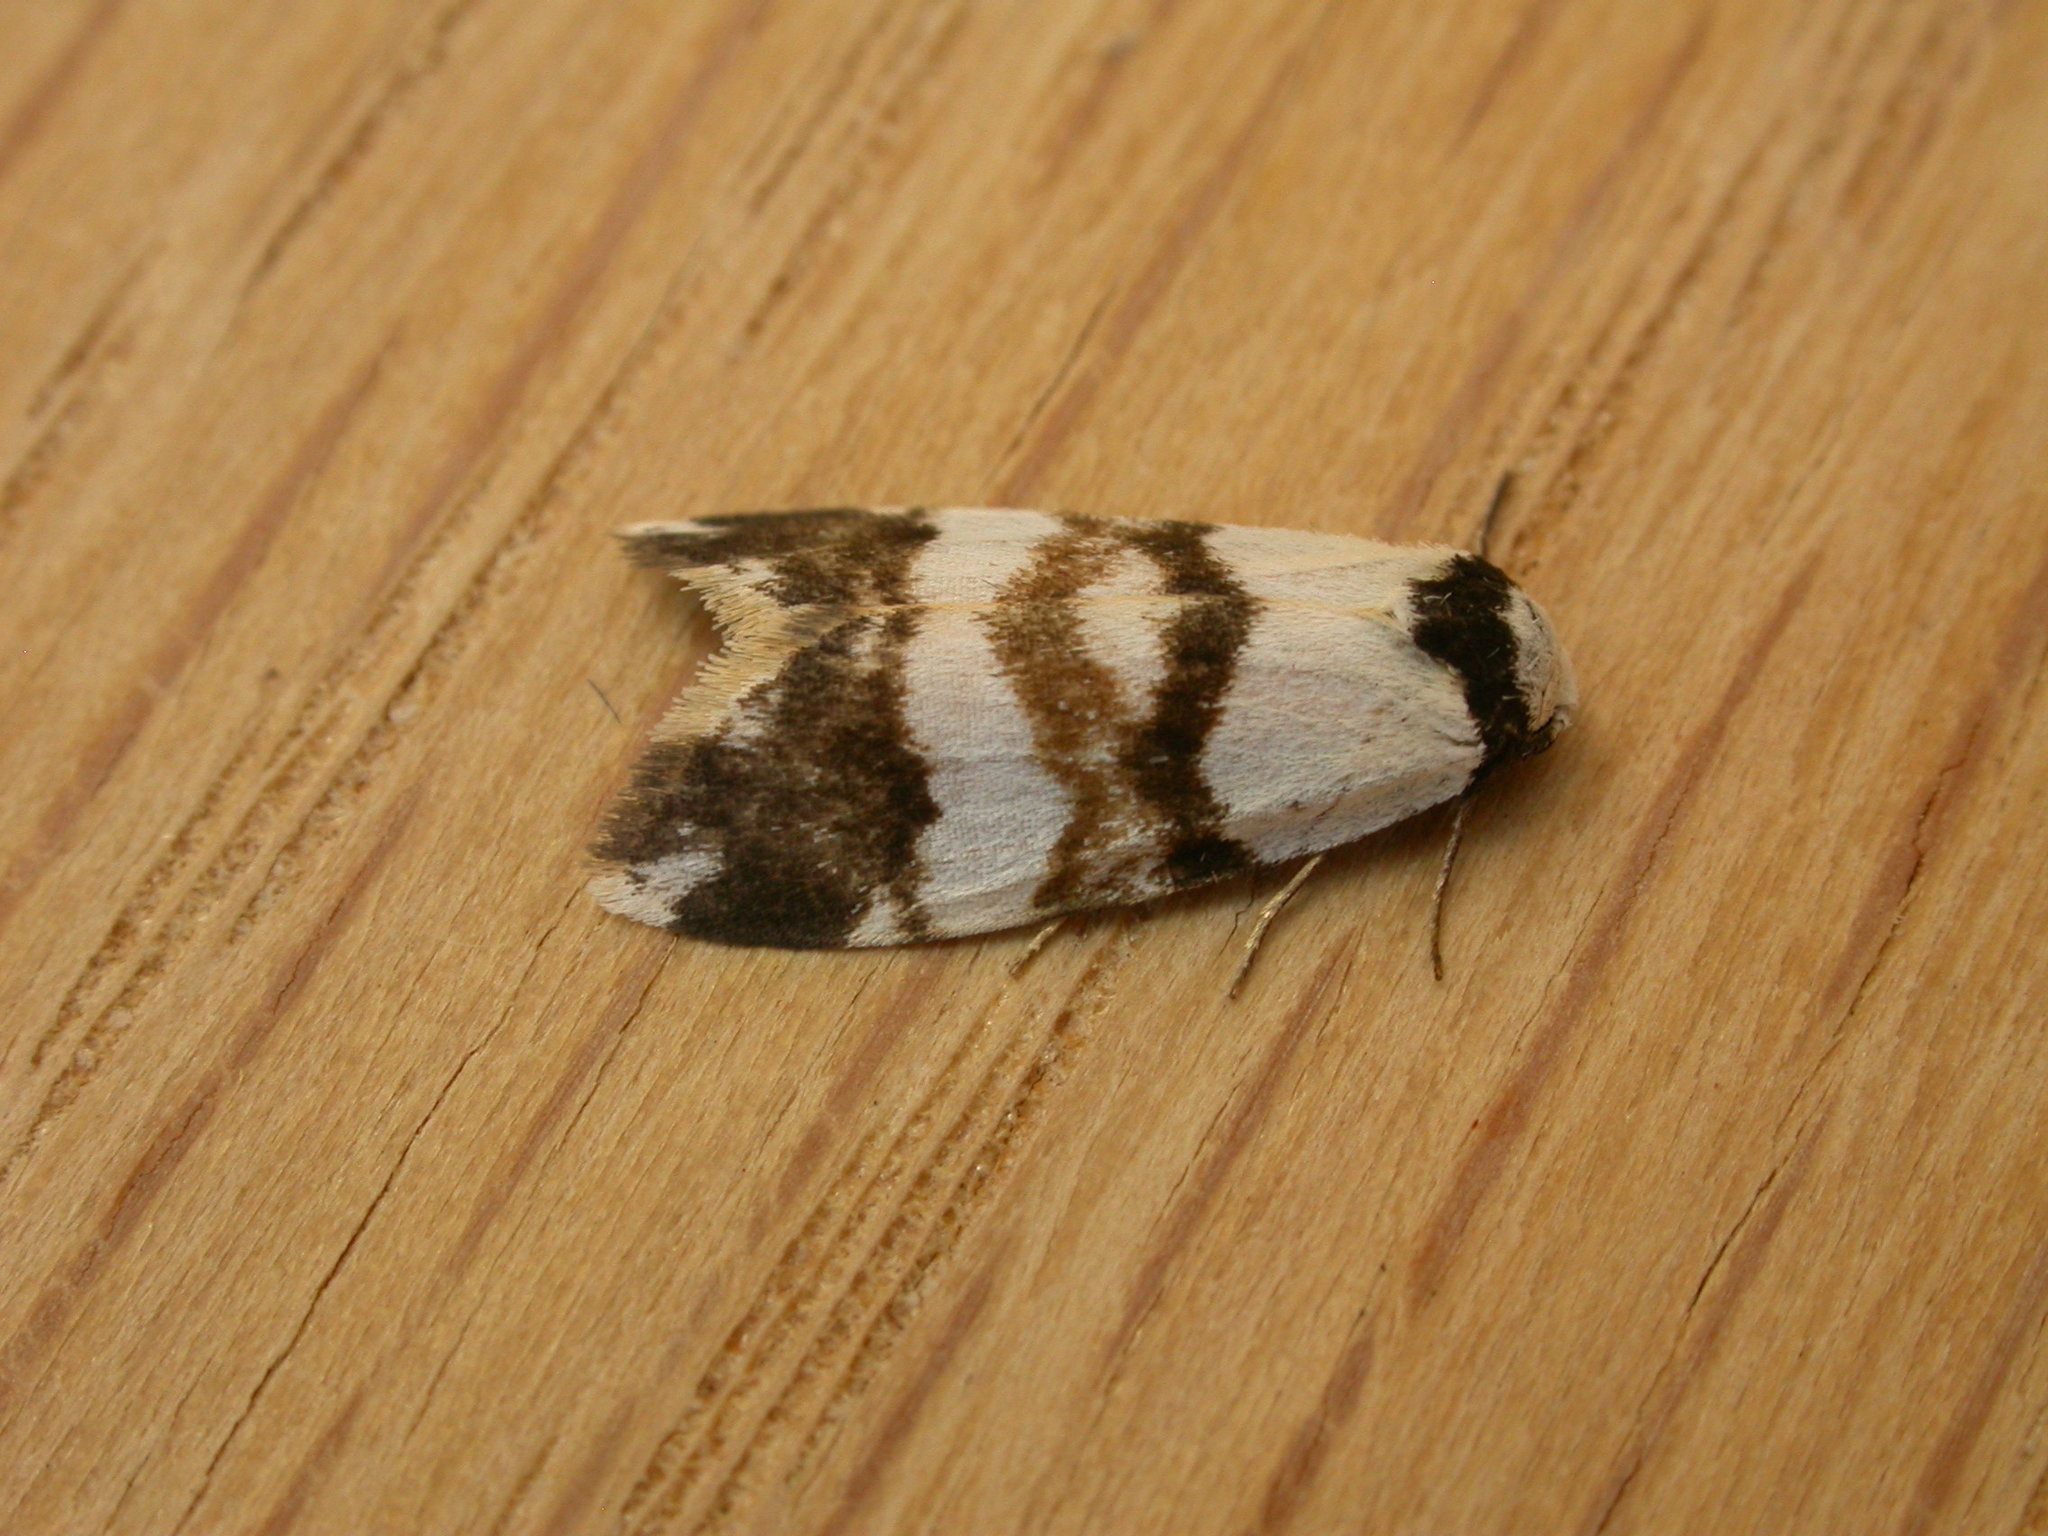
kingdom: Animalia
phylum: Arthropoda
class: Insecta
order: Lepidoptera
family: Erebidae
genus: Thallarcha
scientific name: Thallarcha albicollis
